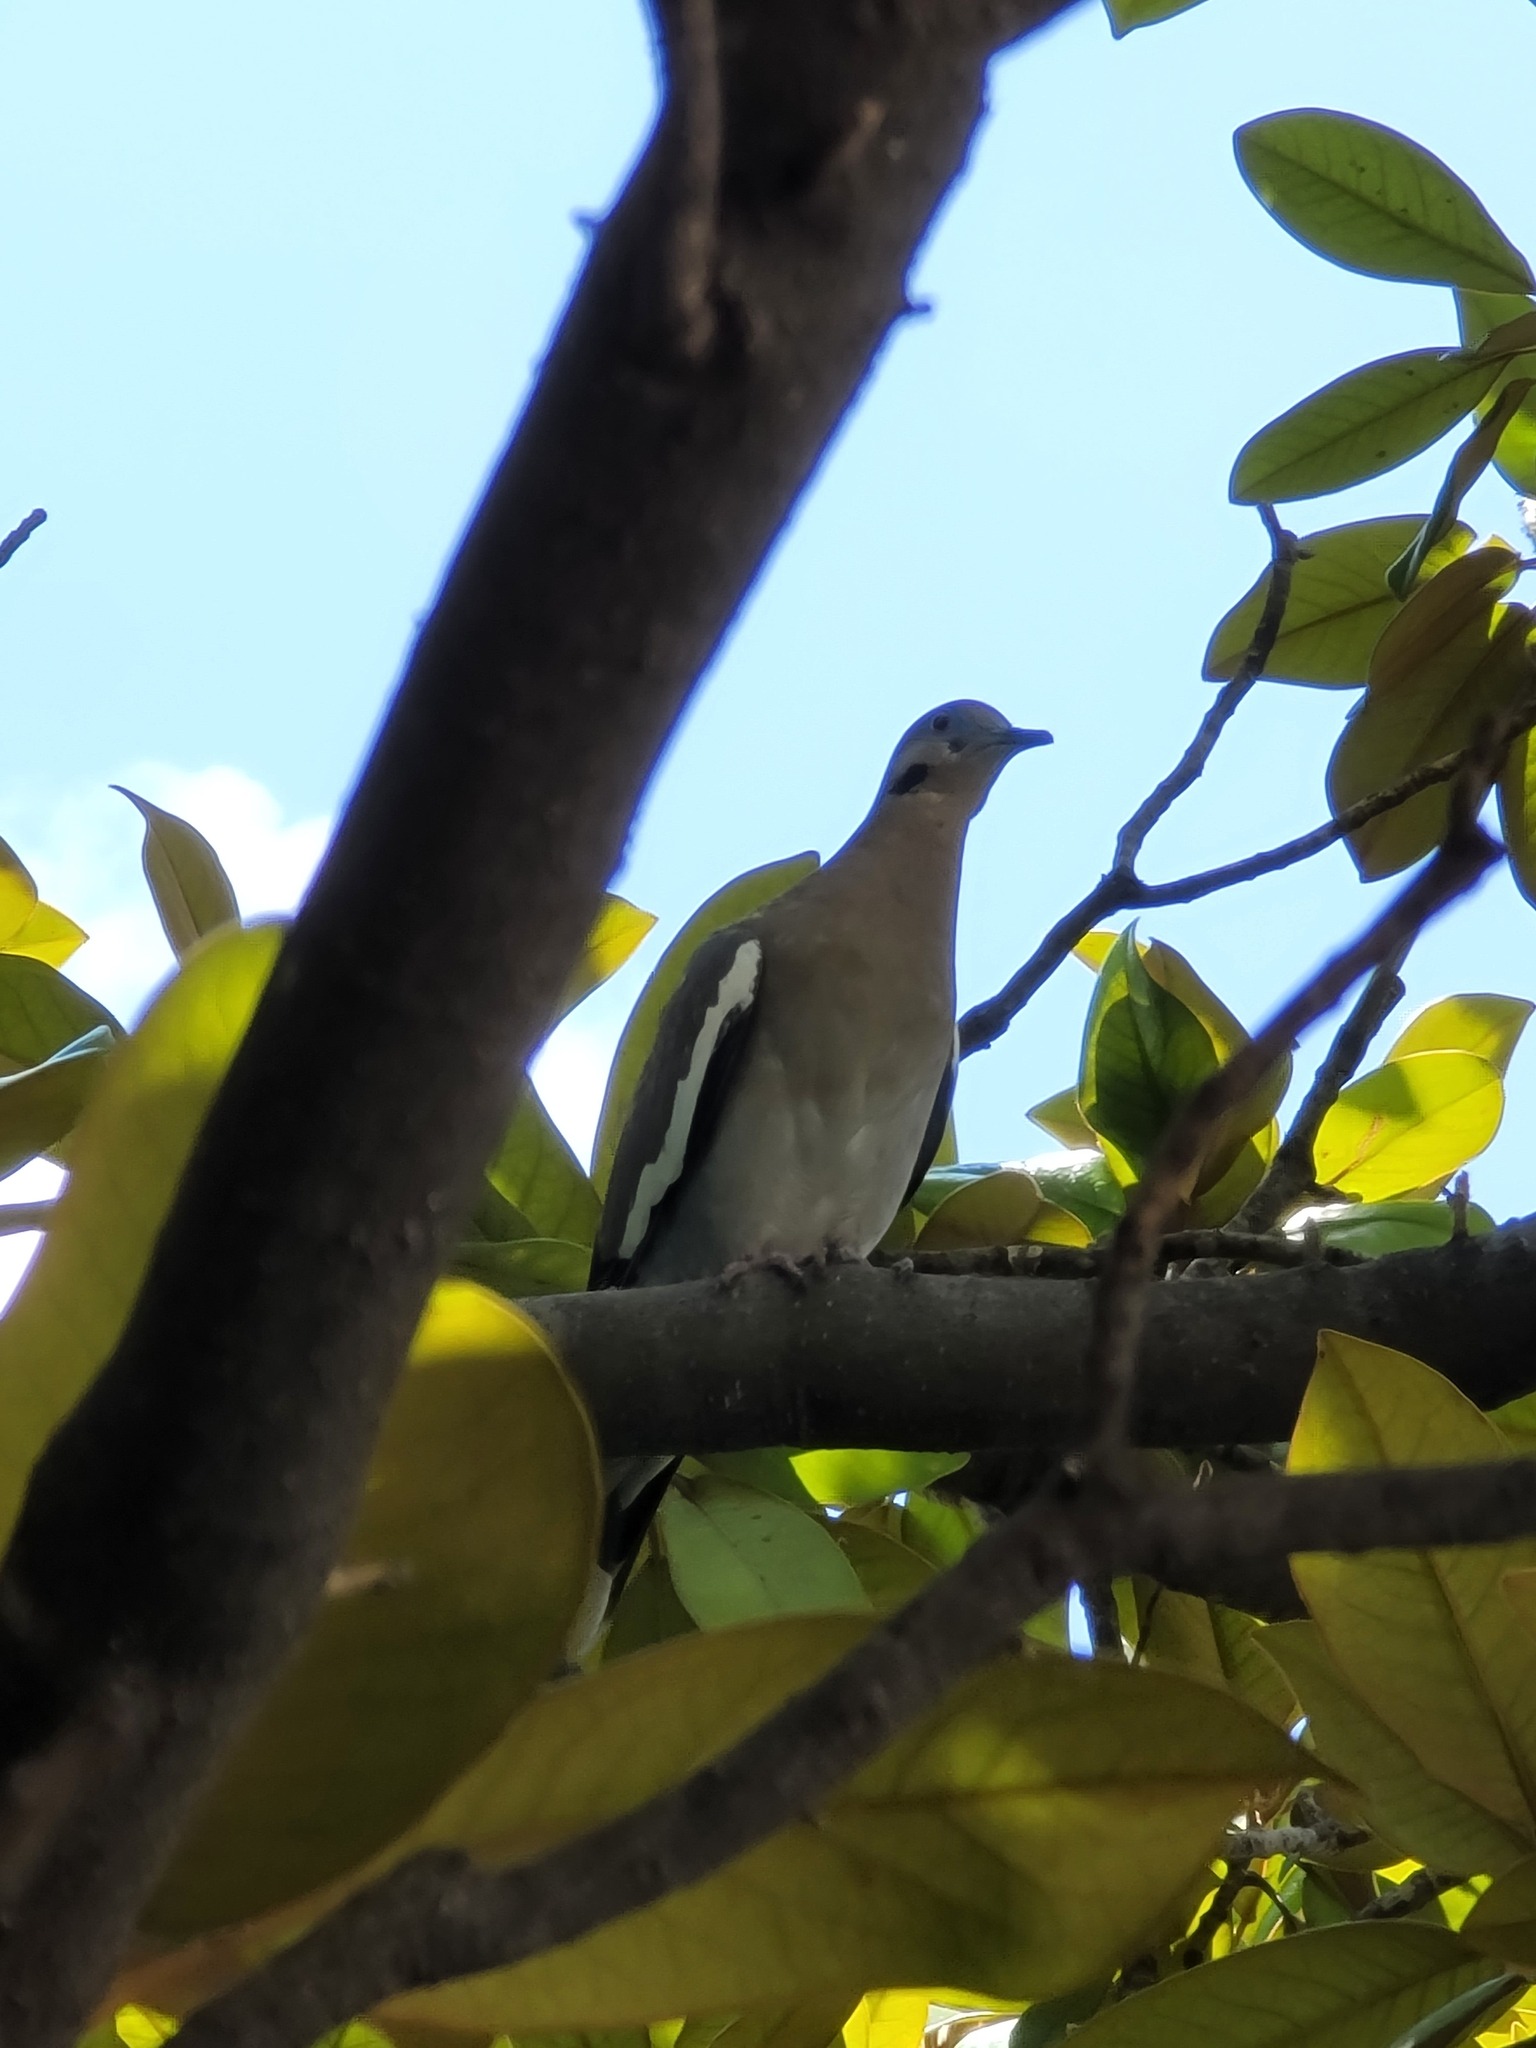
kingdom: Animalia
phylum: Chordata
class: Aves
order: Columbiformes
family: Columbidae
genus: Zenaida
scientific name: Zenaida asiatica
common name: White-winged dove
